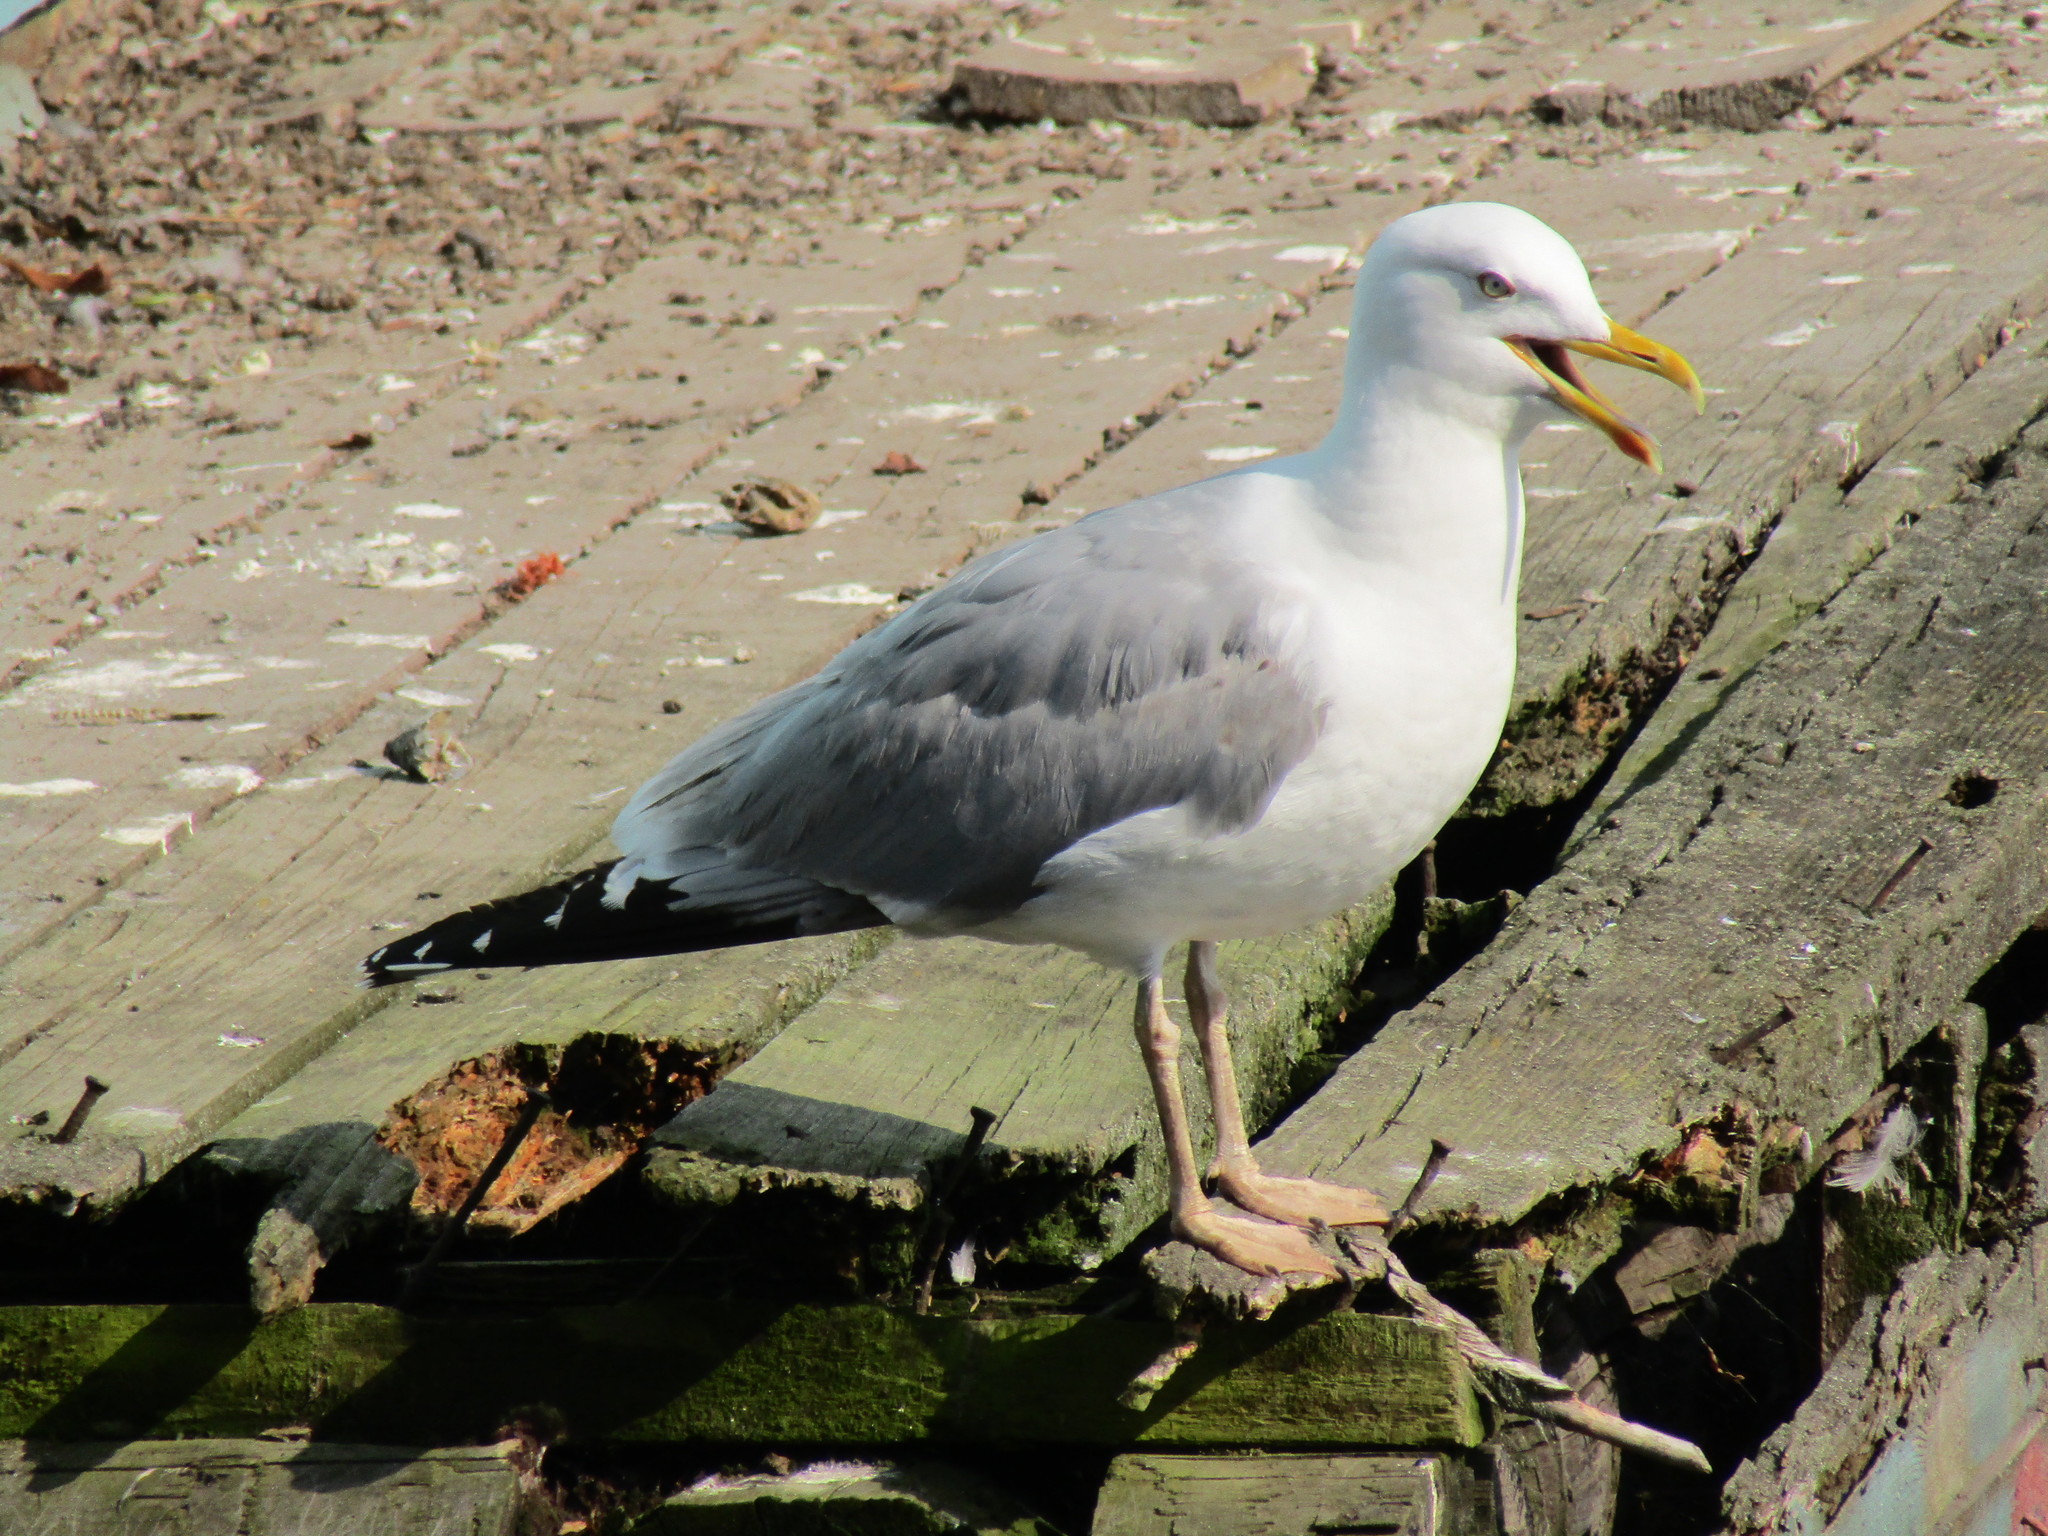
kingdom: Animalia
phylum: Chordata
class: Aves
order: Charadriiformes
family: Laridae
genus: Larus
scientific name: Larus argentatus
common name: Herring gull
